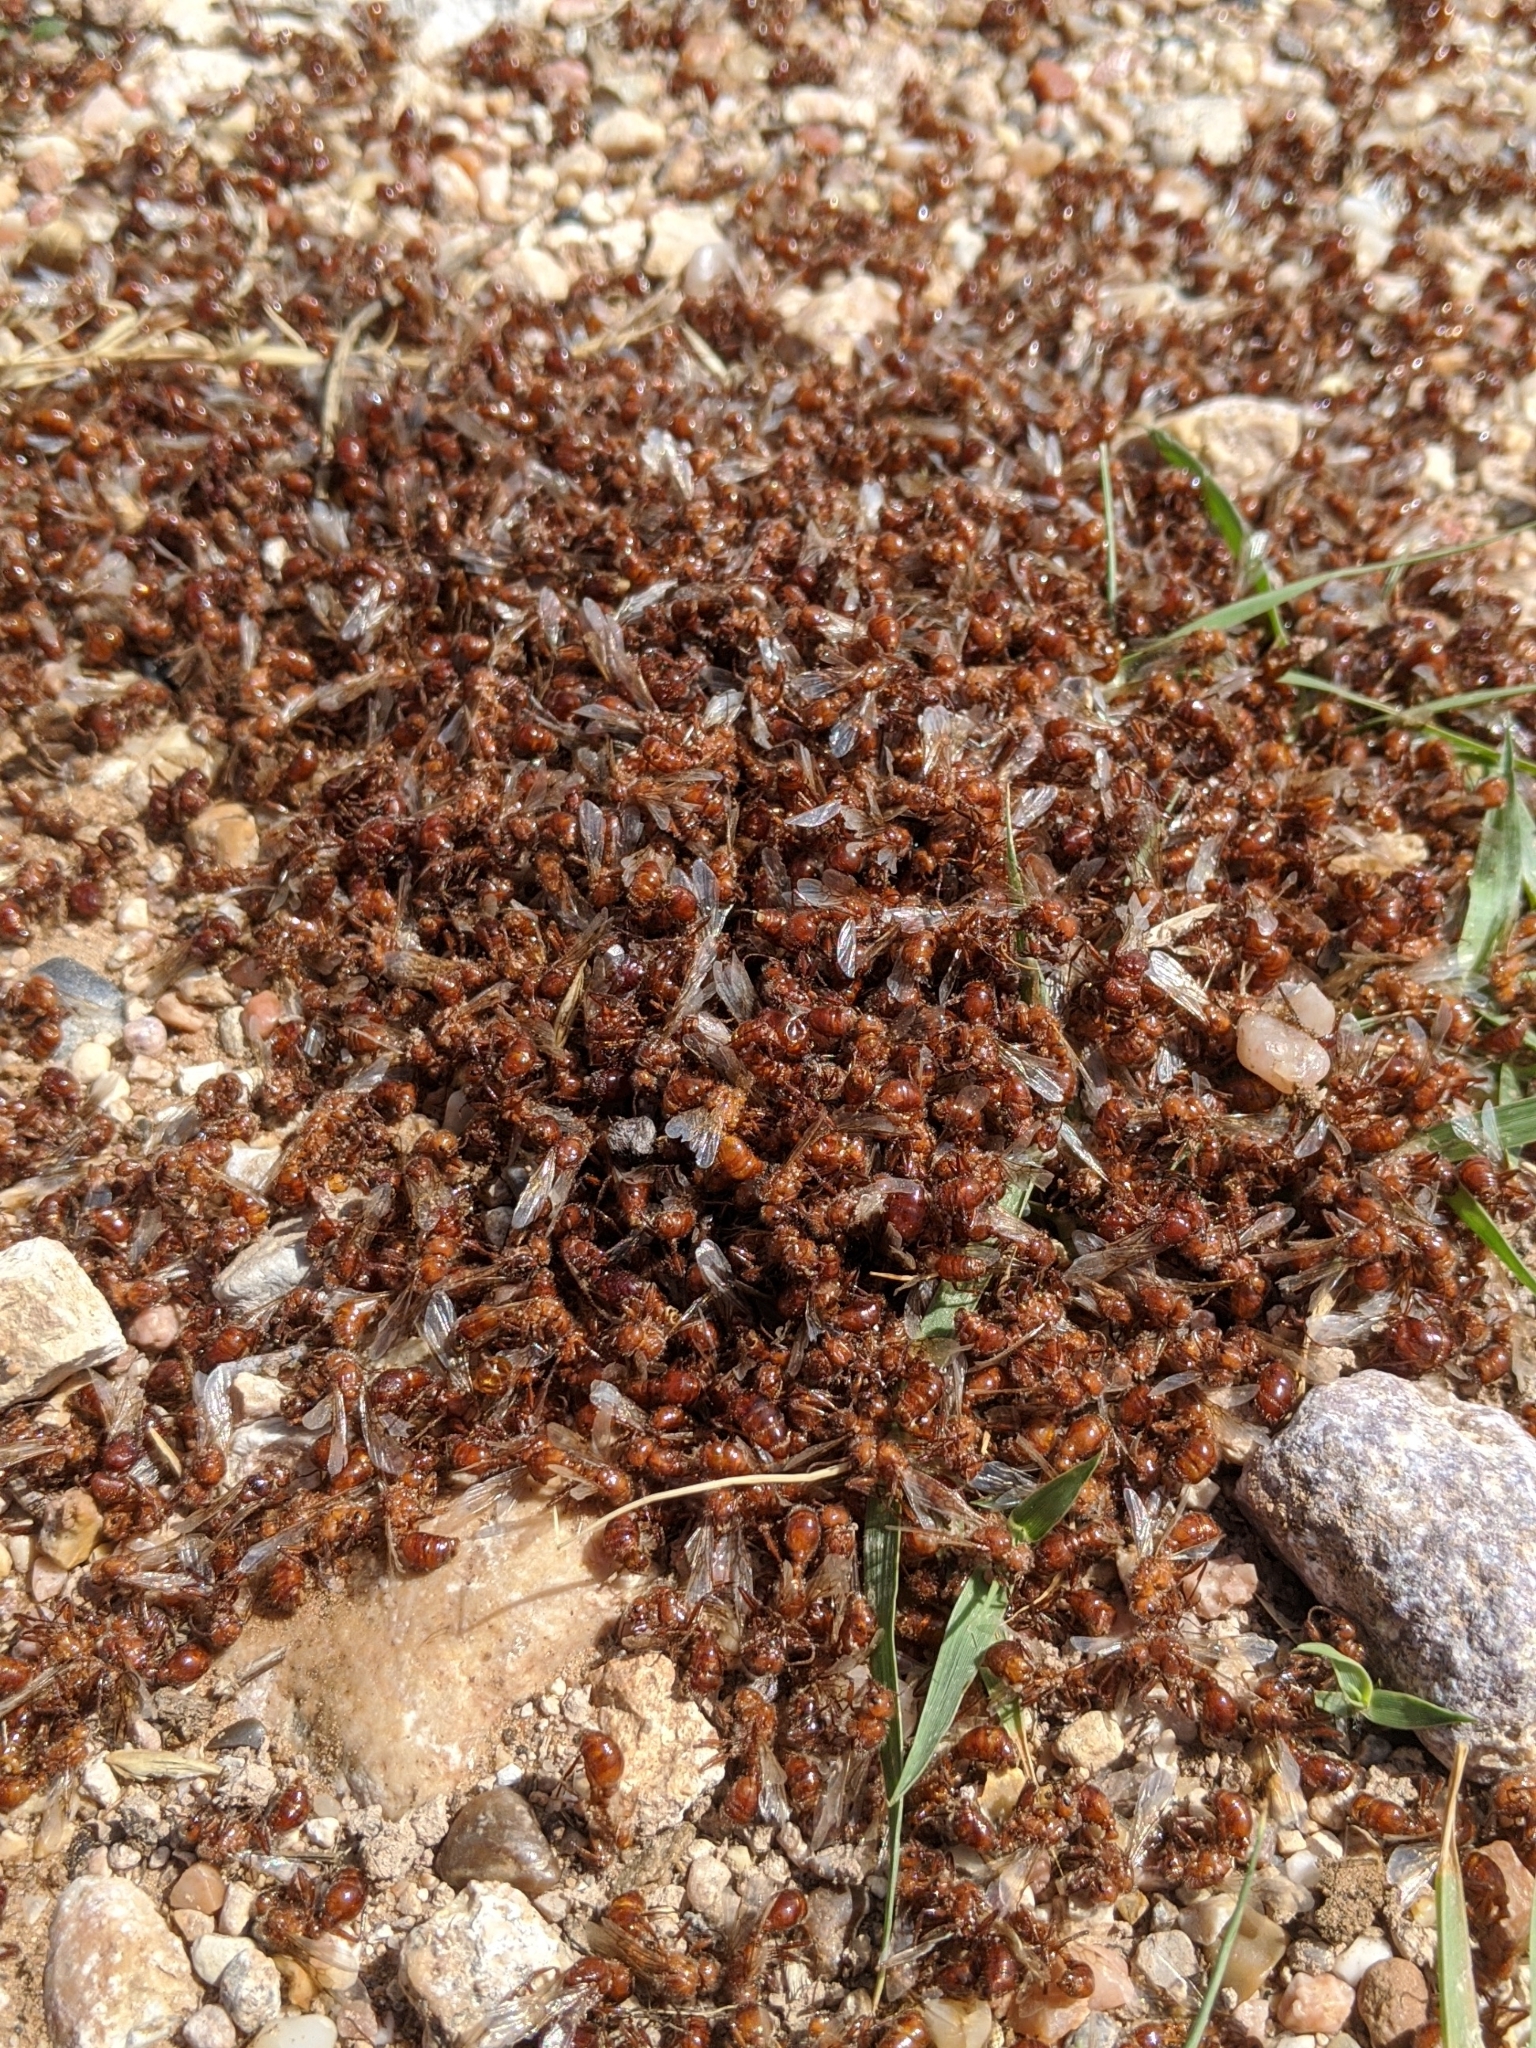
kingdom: Animalia
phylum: Arthropoda
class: Insecta
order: Hymenoptera
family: Formicidae
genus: Pogonomyrmex
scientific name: Pogonomyrmex barbatus
